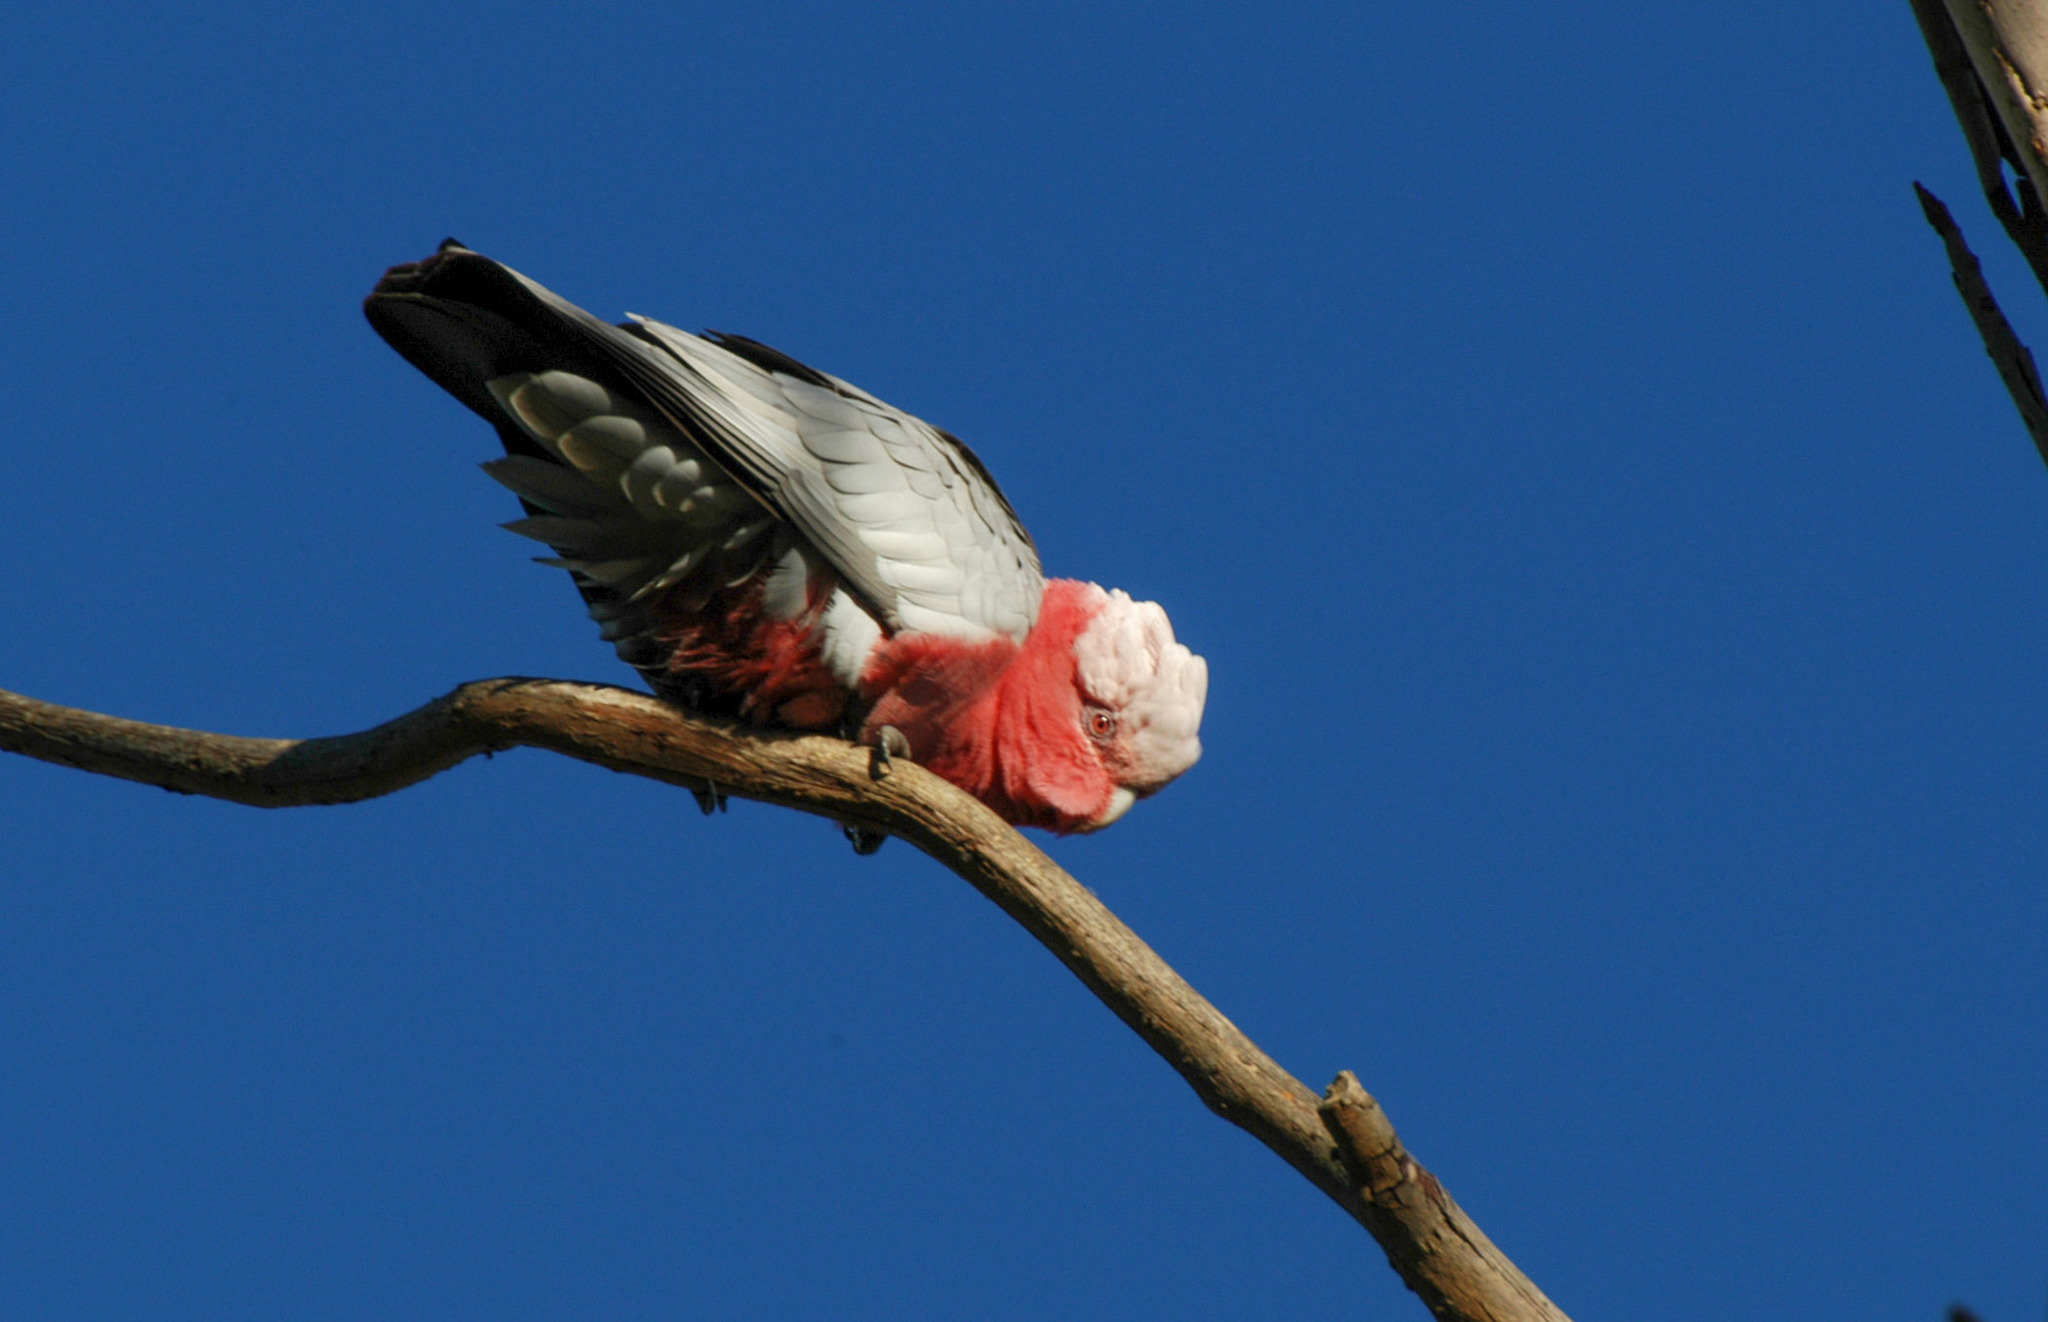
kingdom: Animalia
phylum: Chordata
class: Aves
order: Psittaciformes
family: Psittacidae
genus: Eolophus
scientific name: Eolophus roseicapilla
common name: Galah
